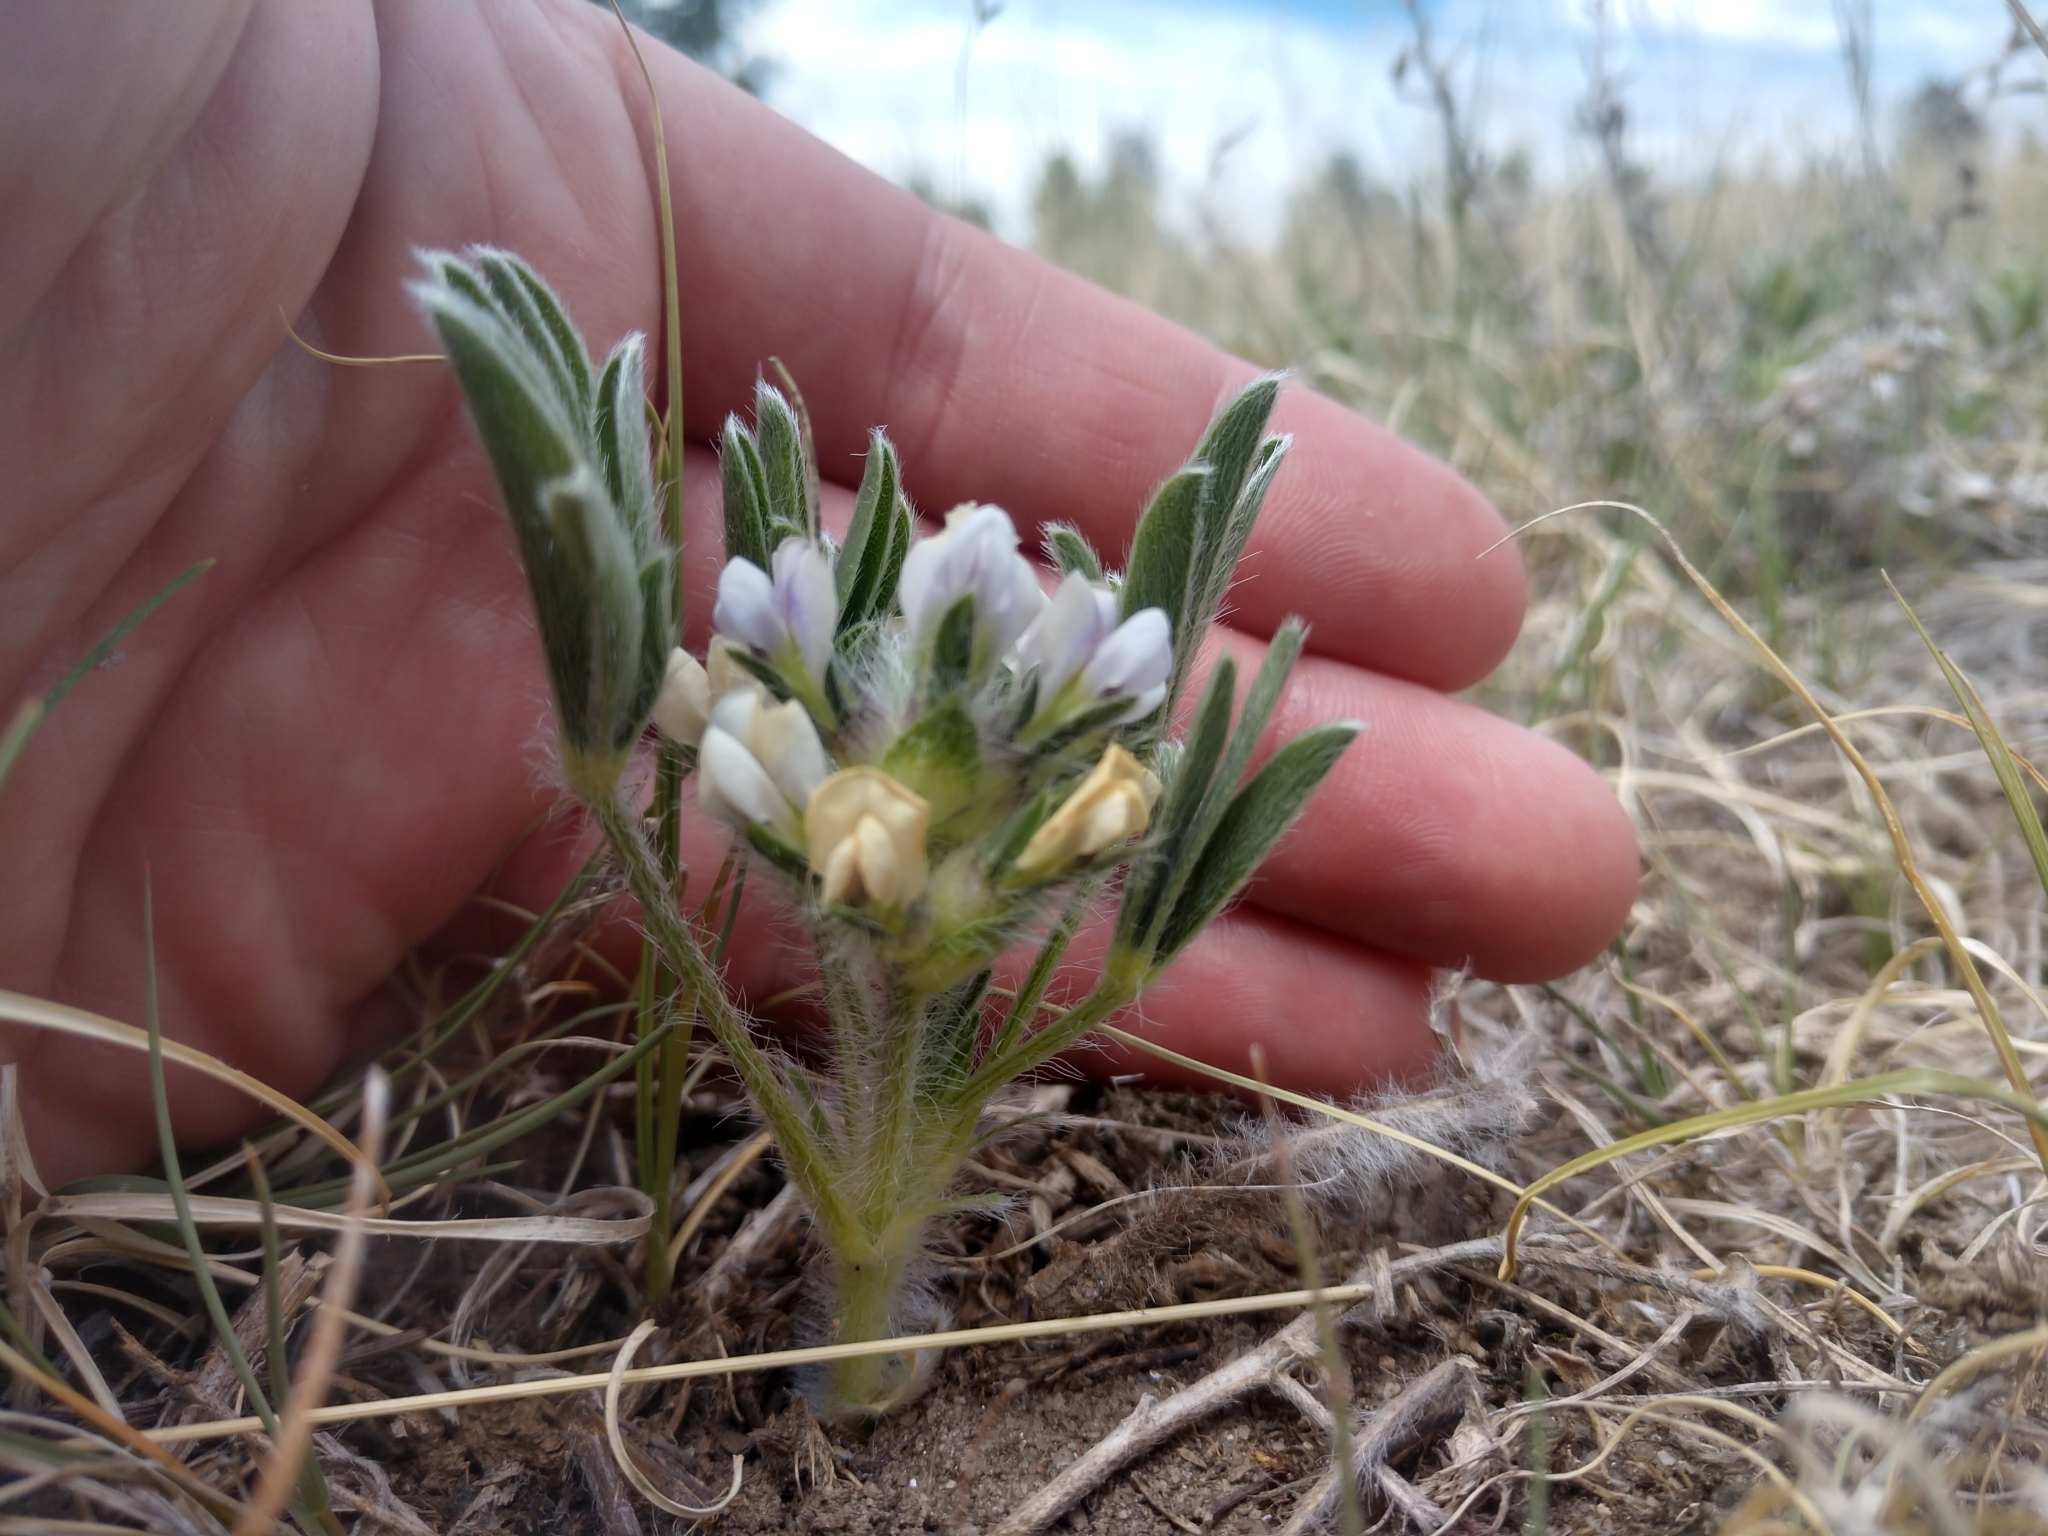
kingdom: Plantae
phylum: Tracheophyta
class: Magnoliopsida
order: Fabales
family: Fabaceae
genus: Pediomelum
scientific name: Pediomelum esculentum
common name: Indian-turnip
